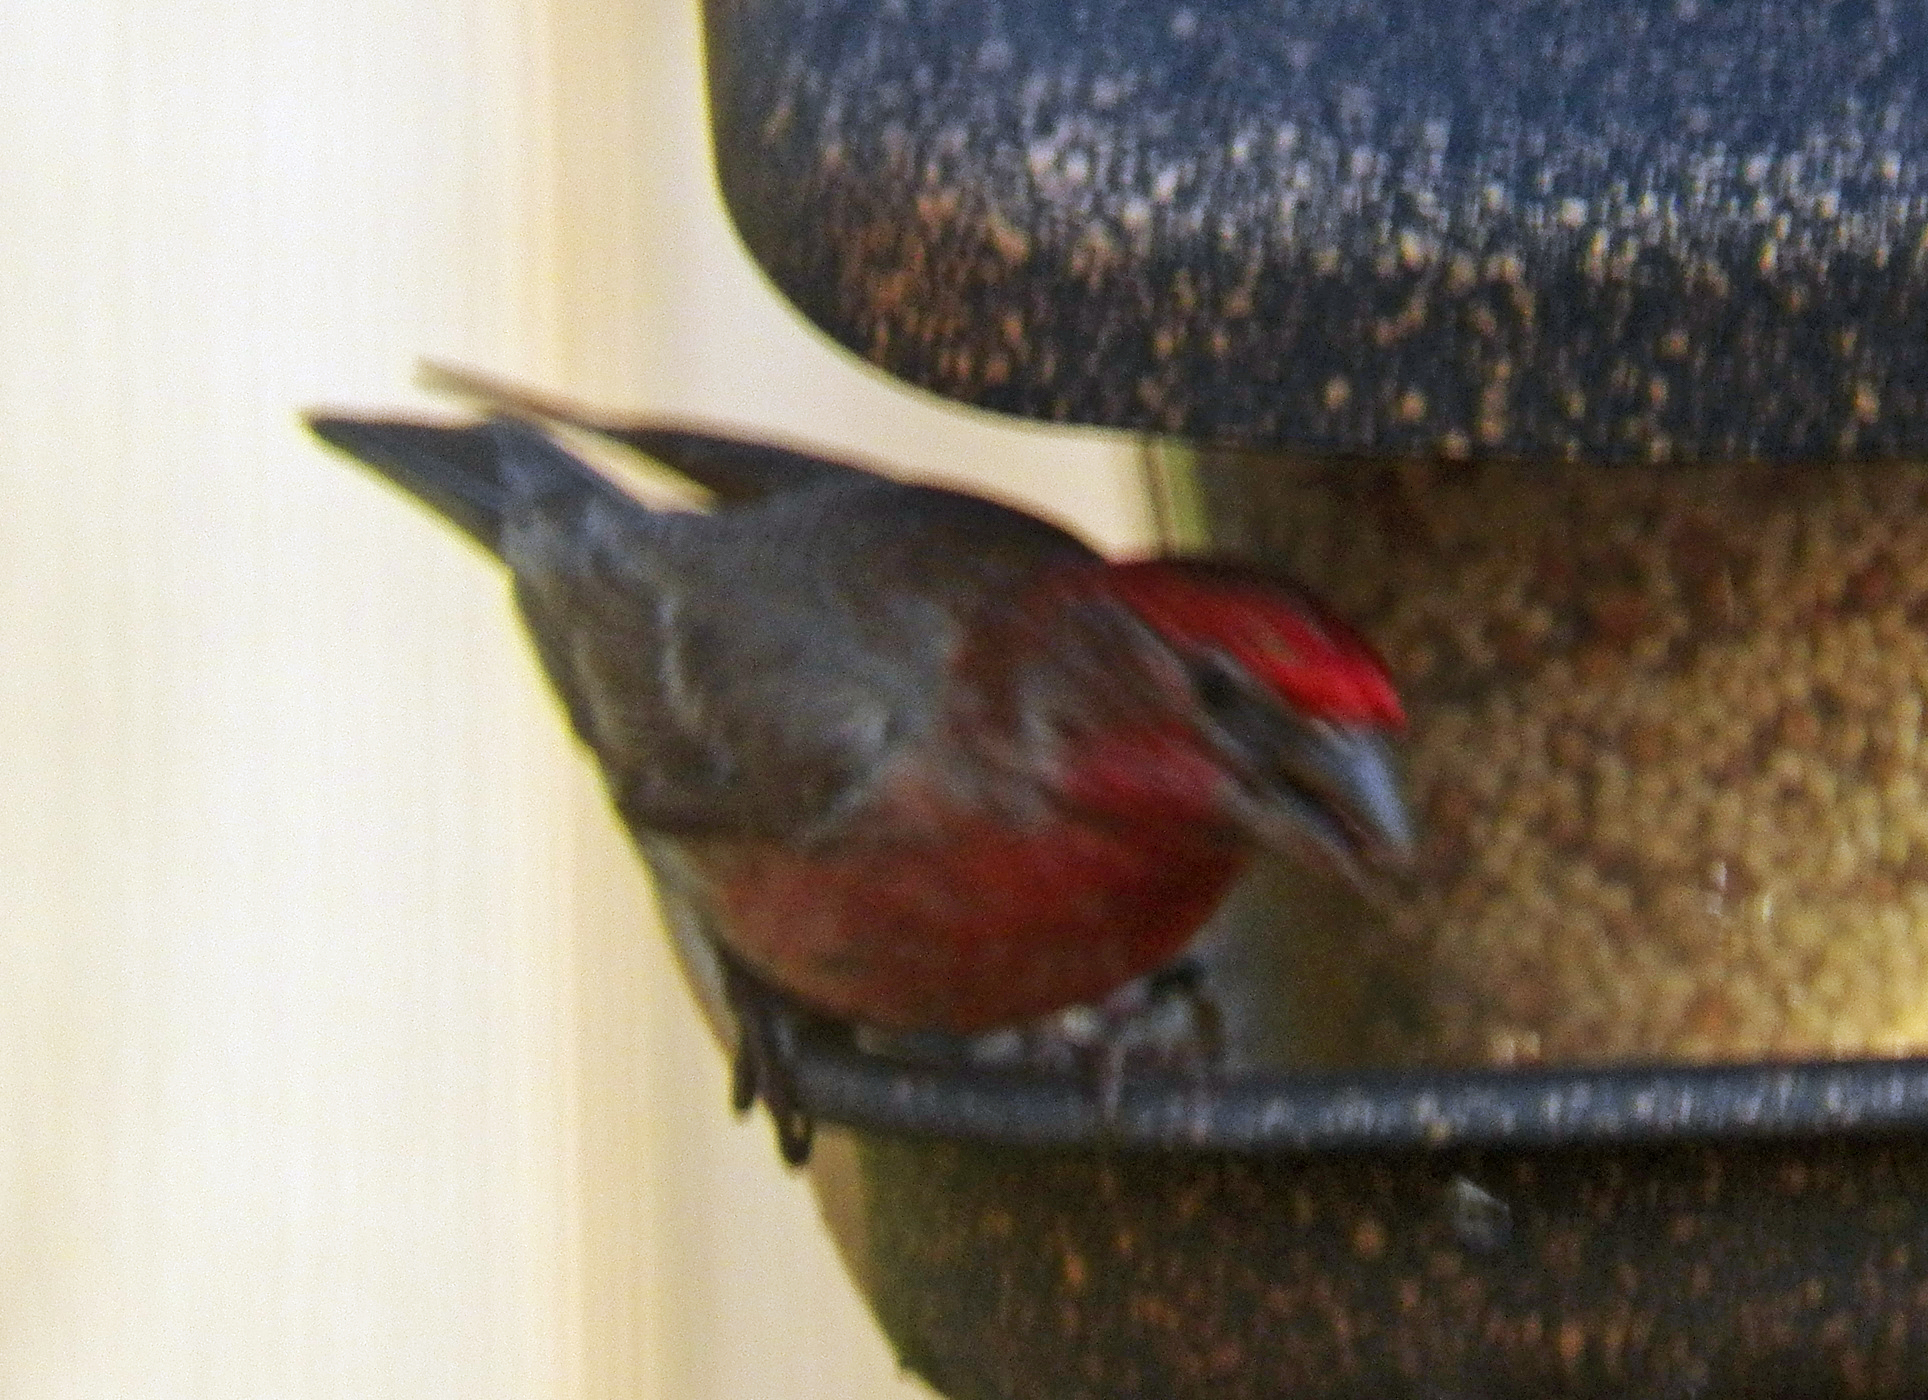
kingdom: Animalia
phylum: Chordata
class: Aves
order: Passeriformes
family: Fringillidae
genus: Haemorhous
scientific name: Haemorhous mexicanus
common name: House finch
